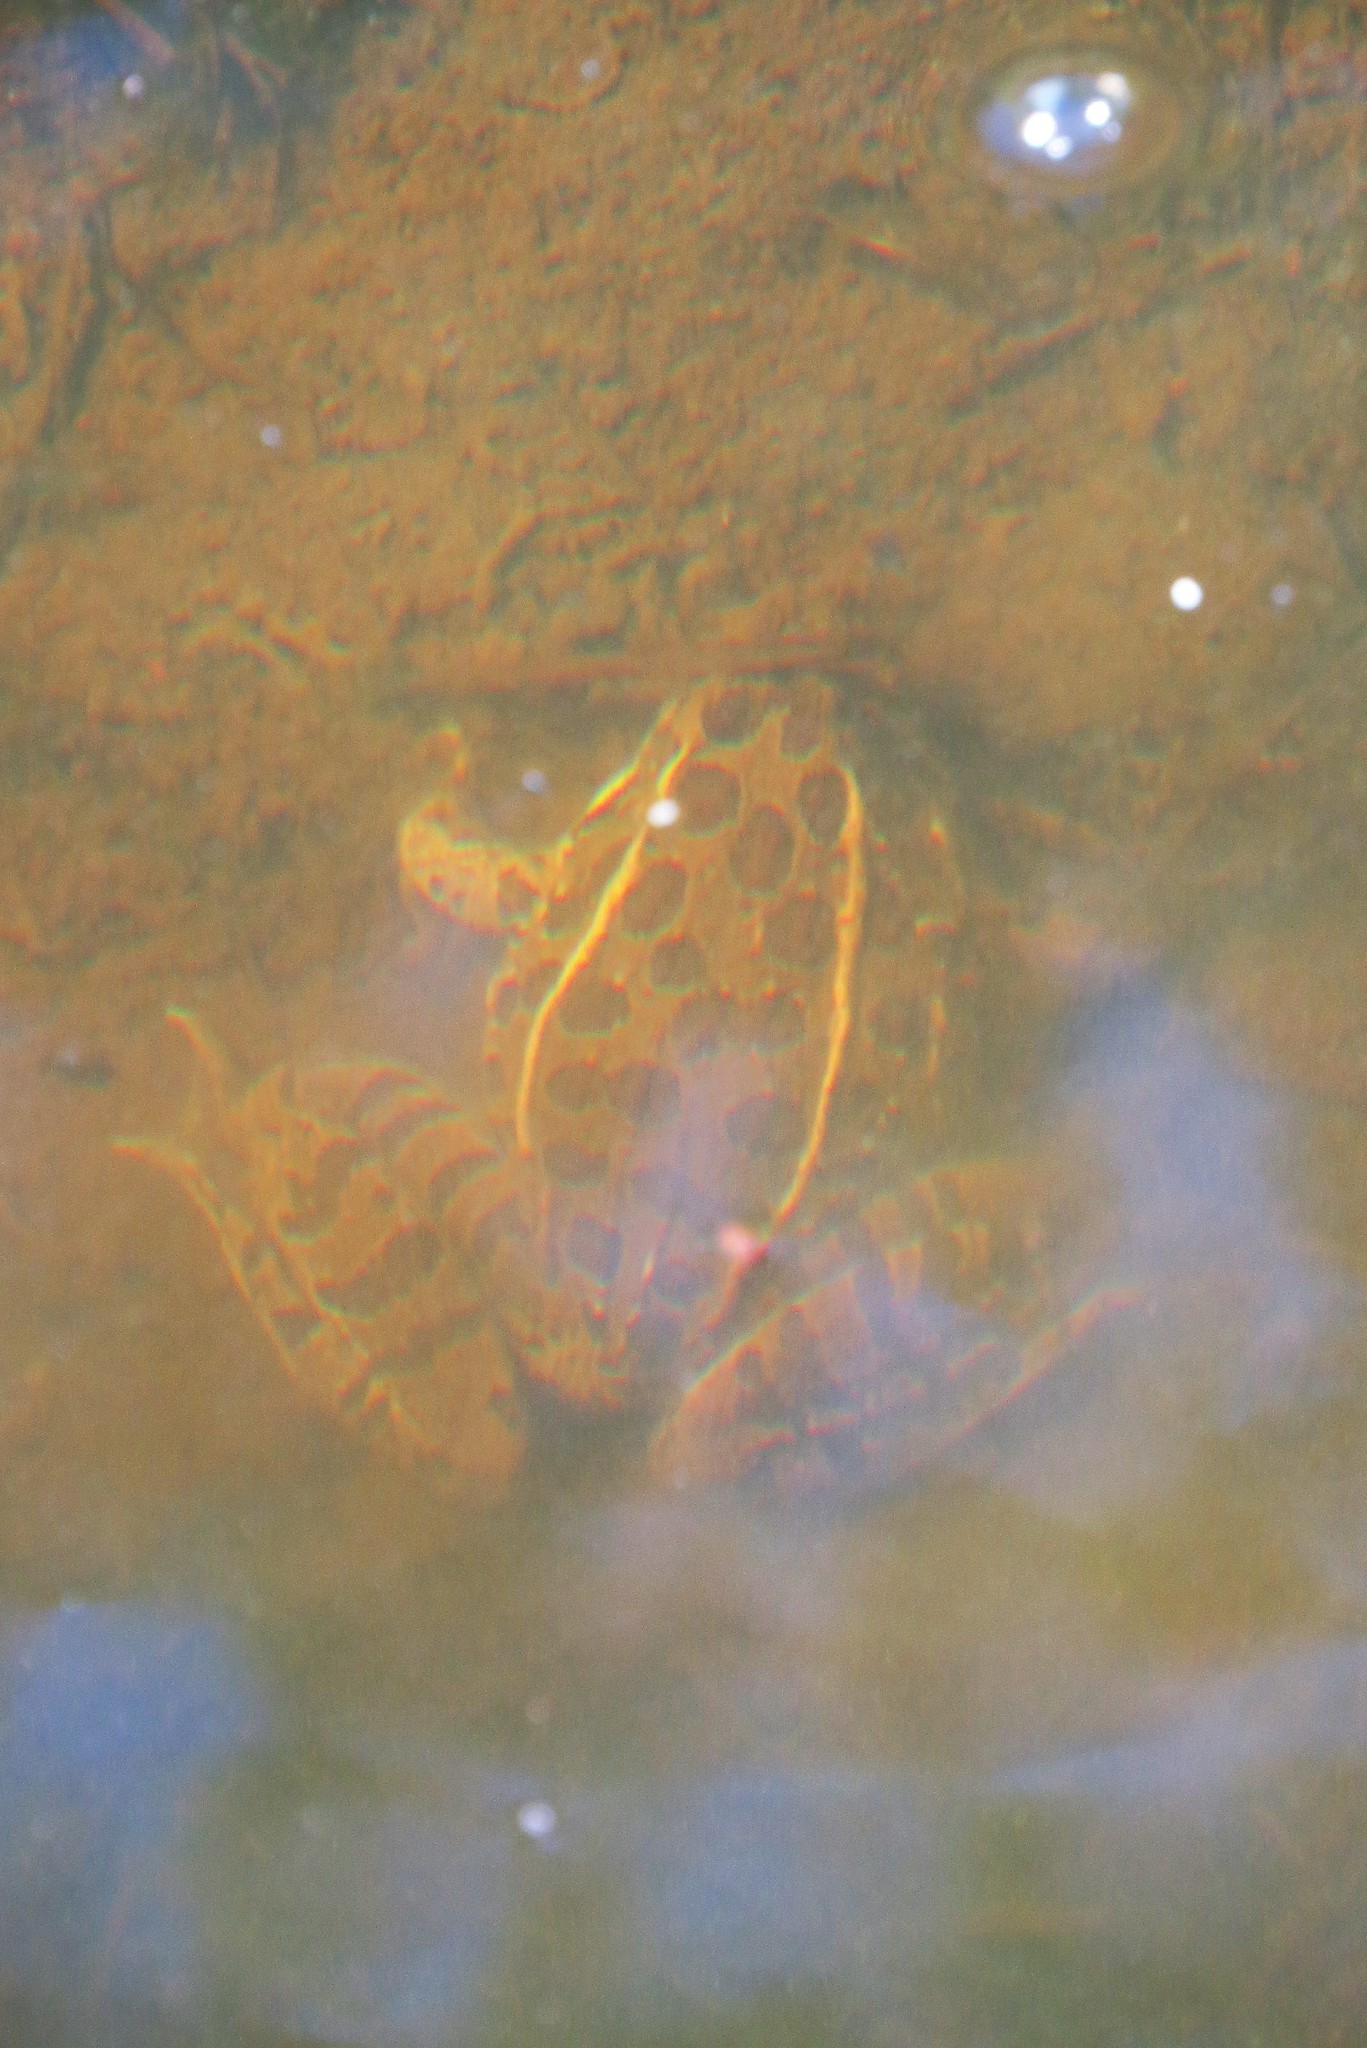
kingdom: Animalia
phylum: Chordata
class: Amphibia
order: Anura
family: Ranidae
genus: Lithobates
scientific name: Lithobates blairi
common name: Plains leopard frog
